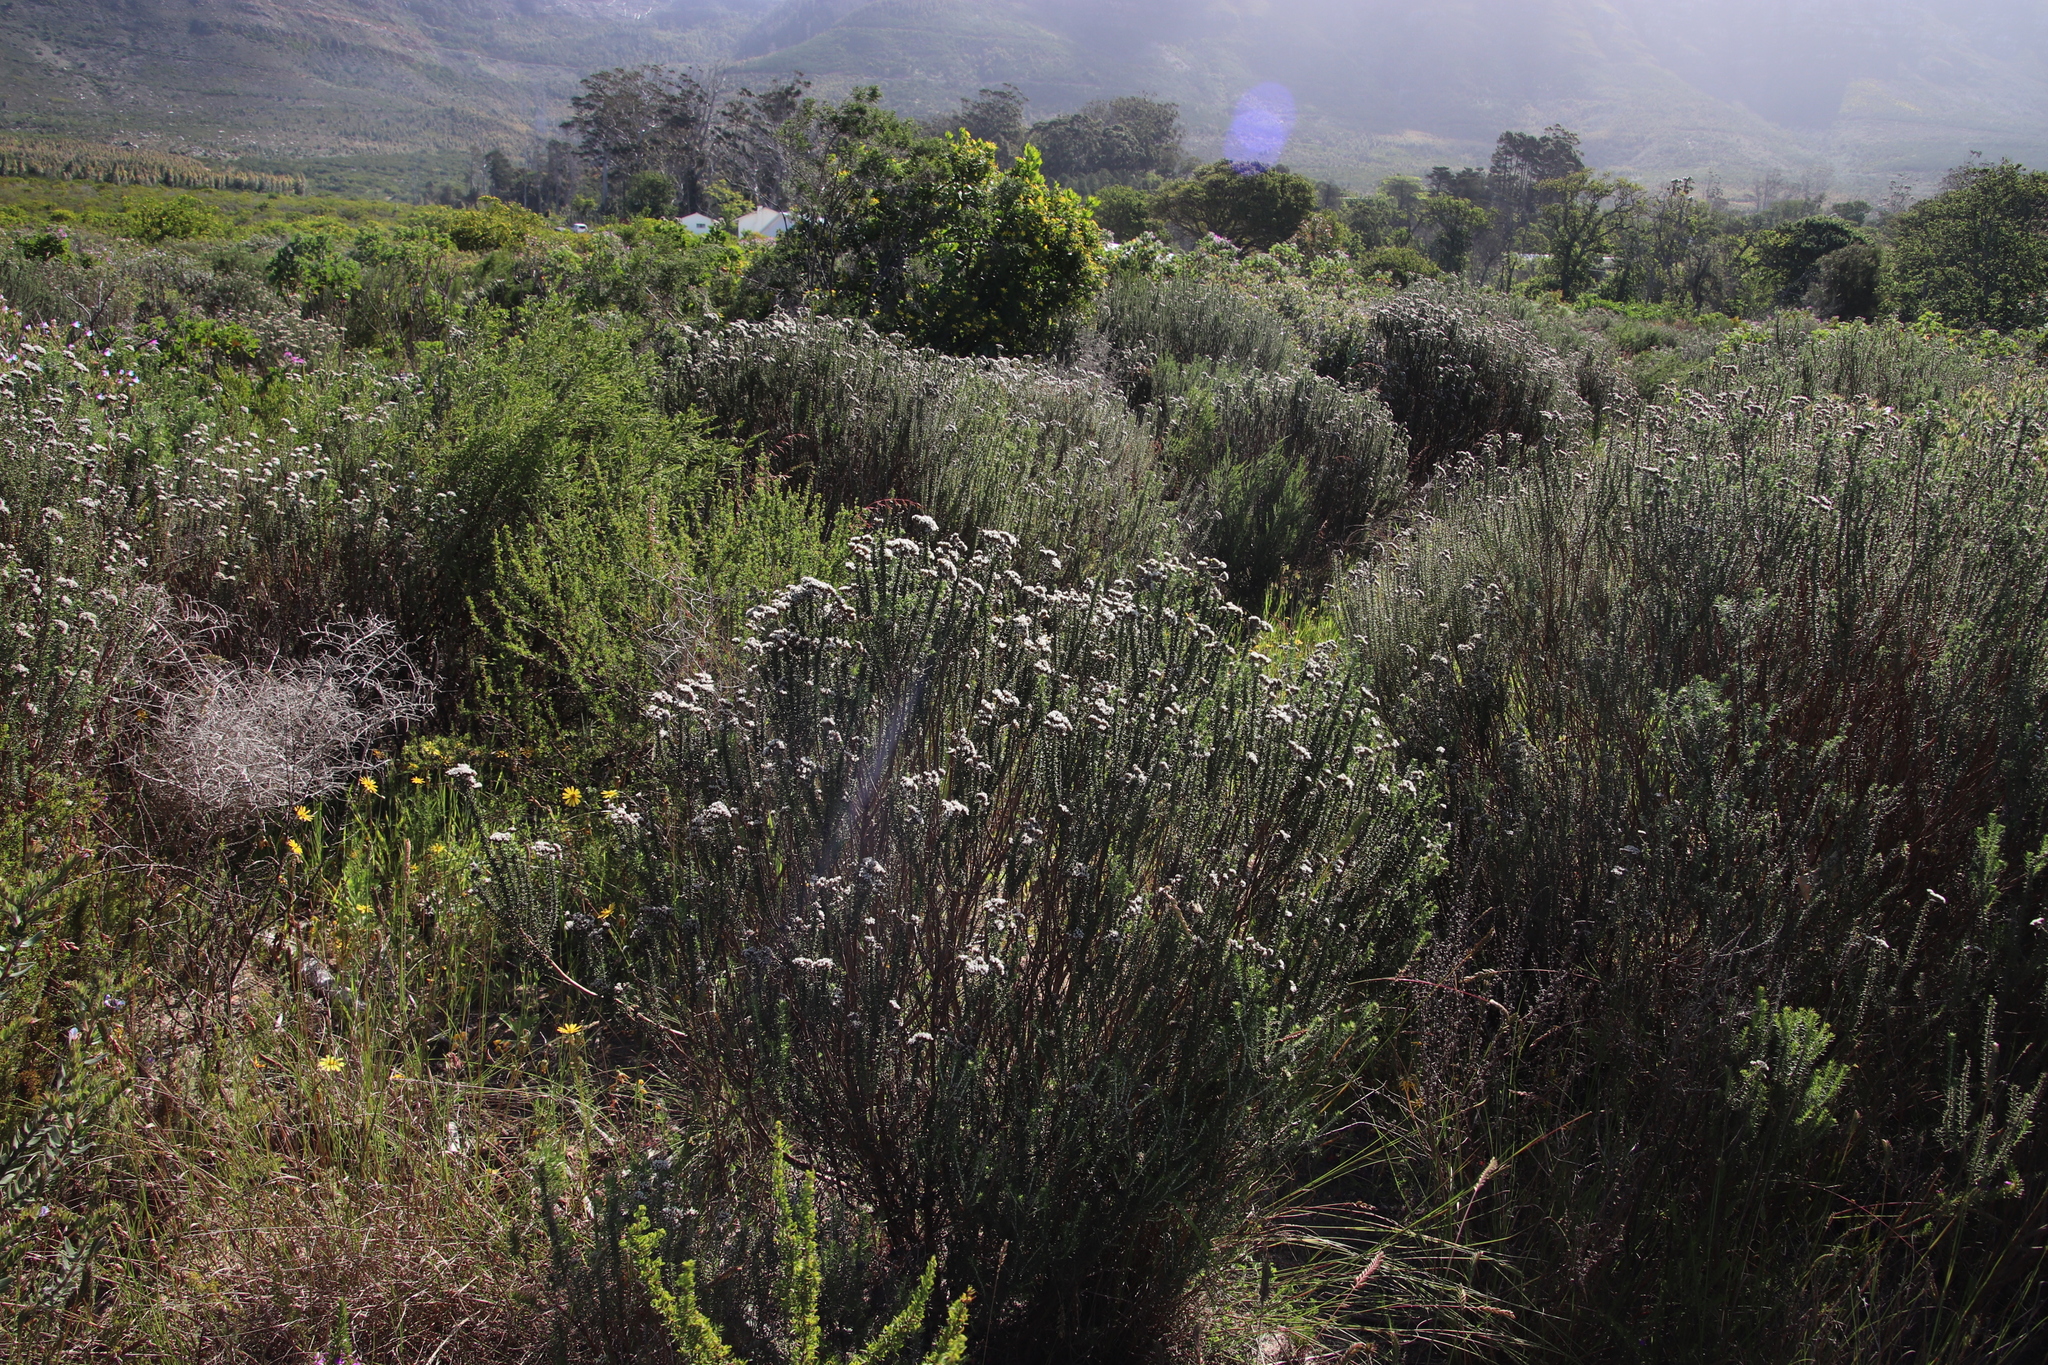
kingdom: Plantae
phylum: Tracheophyta
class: Magnoliopsida
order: Asterales
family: Asteraceae
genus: Metalasia
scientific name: Metalasia densa
